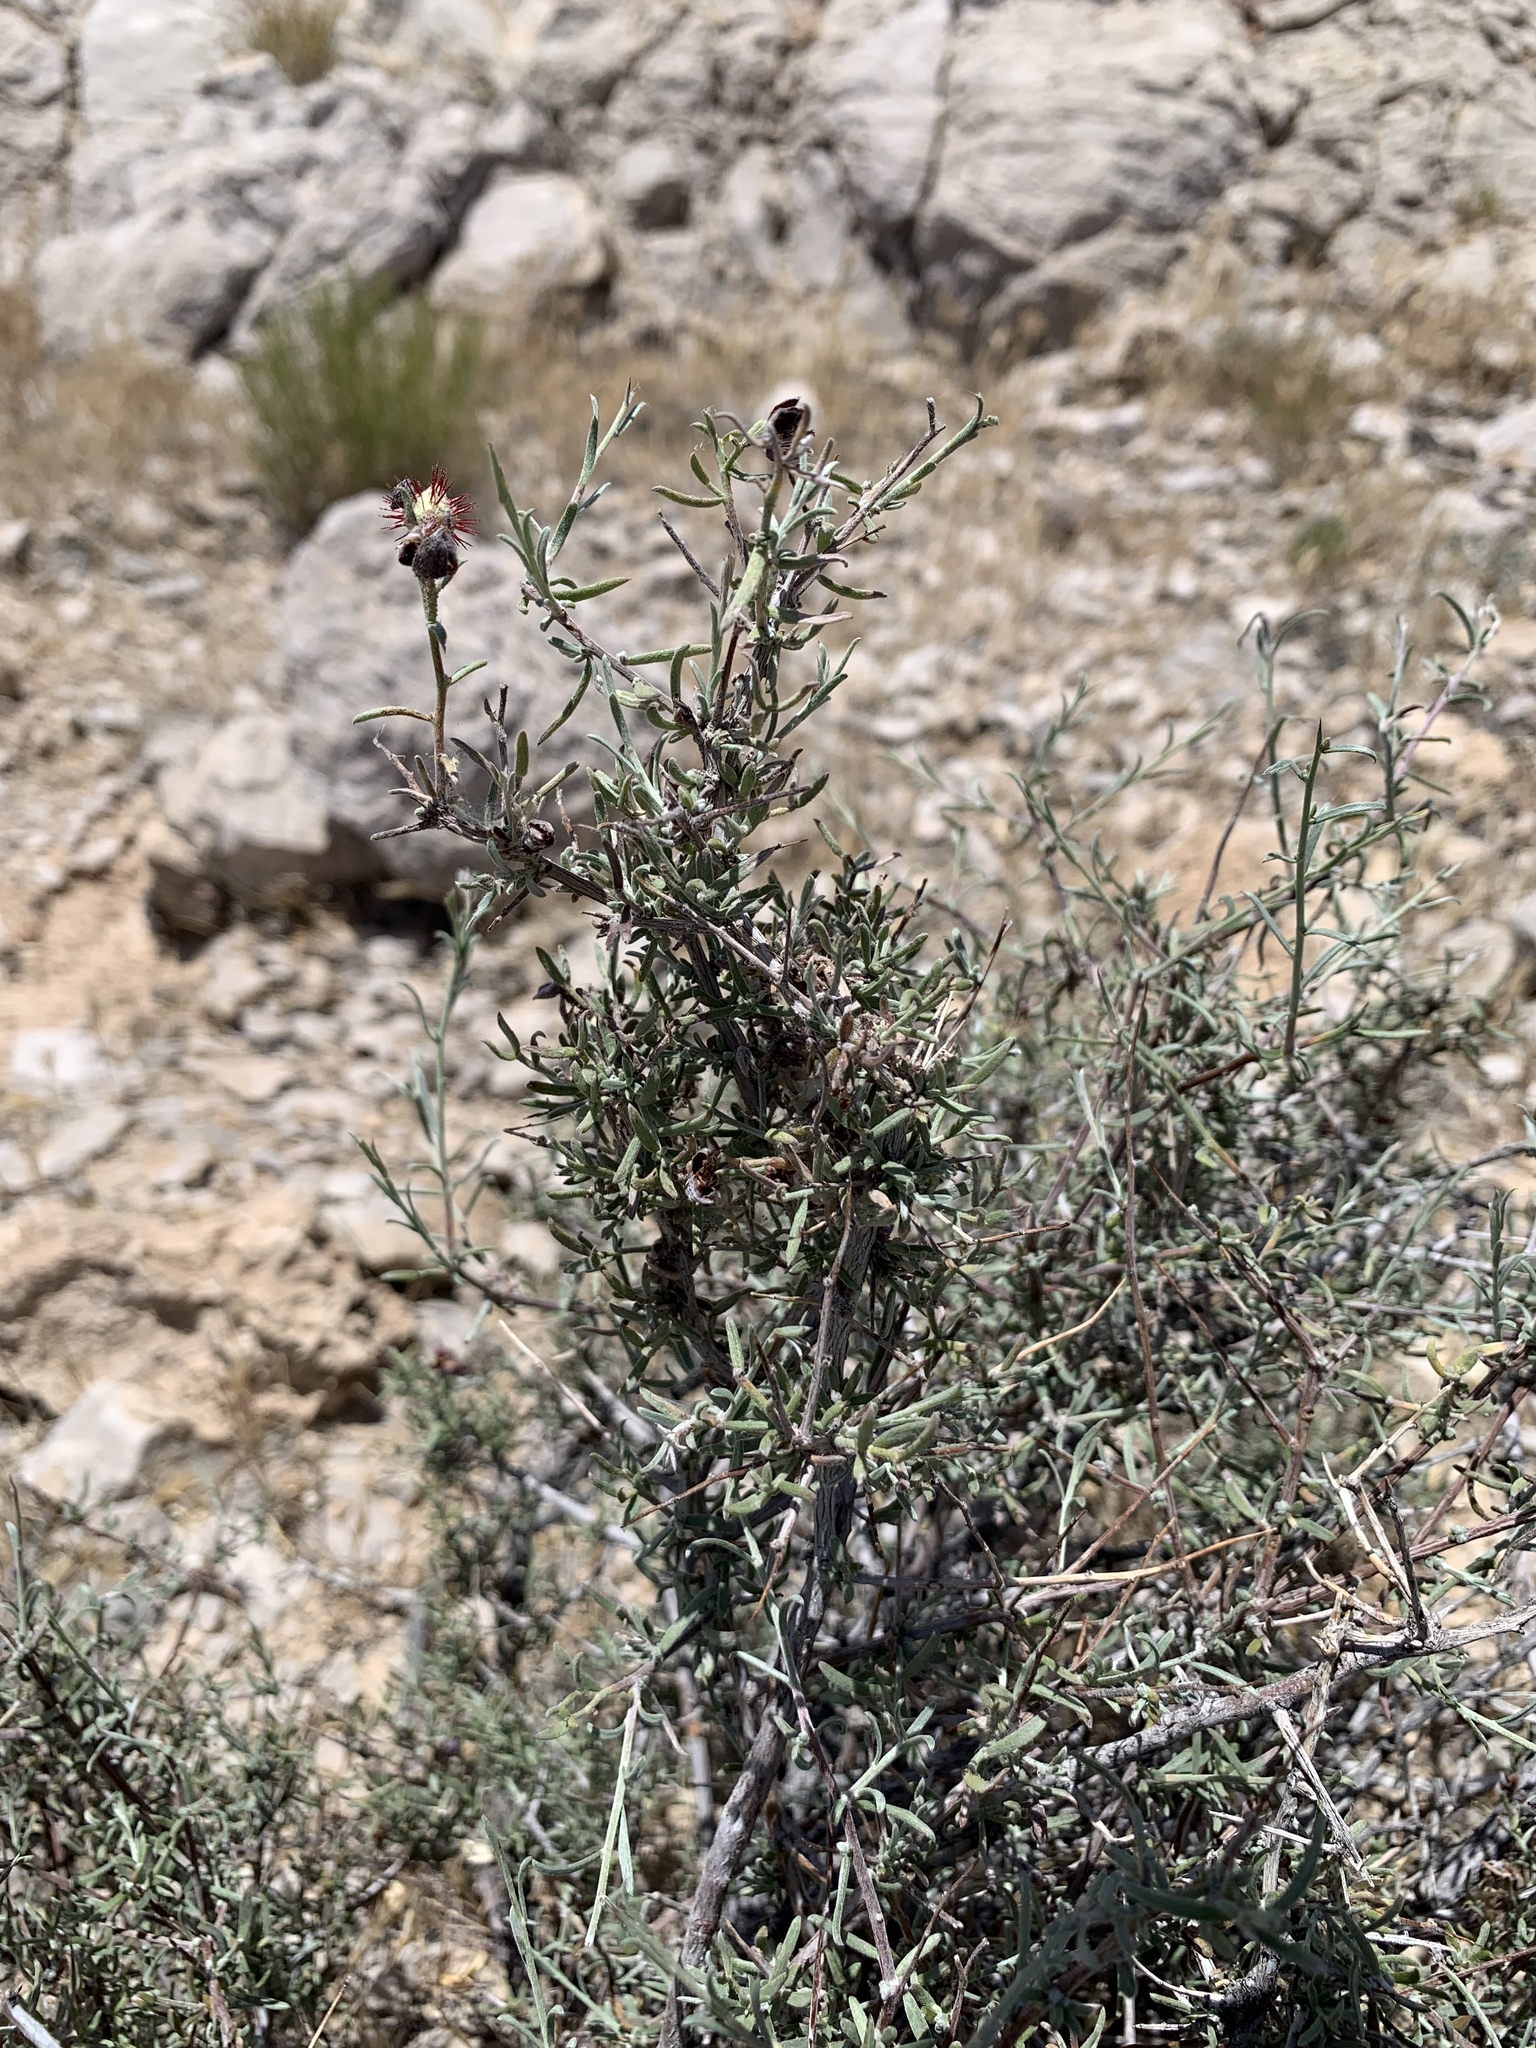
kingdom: Plantae
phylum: Tracheophyta
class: Magnoliopsida
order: Zygophyllales
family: Krameriaceae
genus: Krameria
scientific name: Krameria erecta
